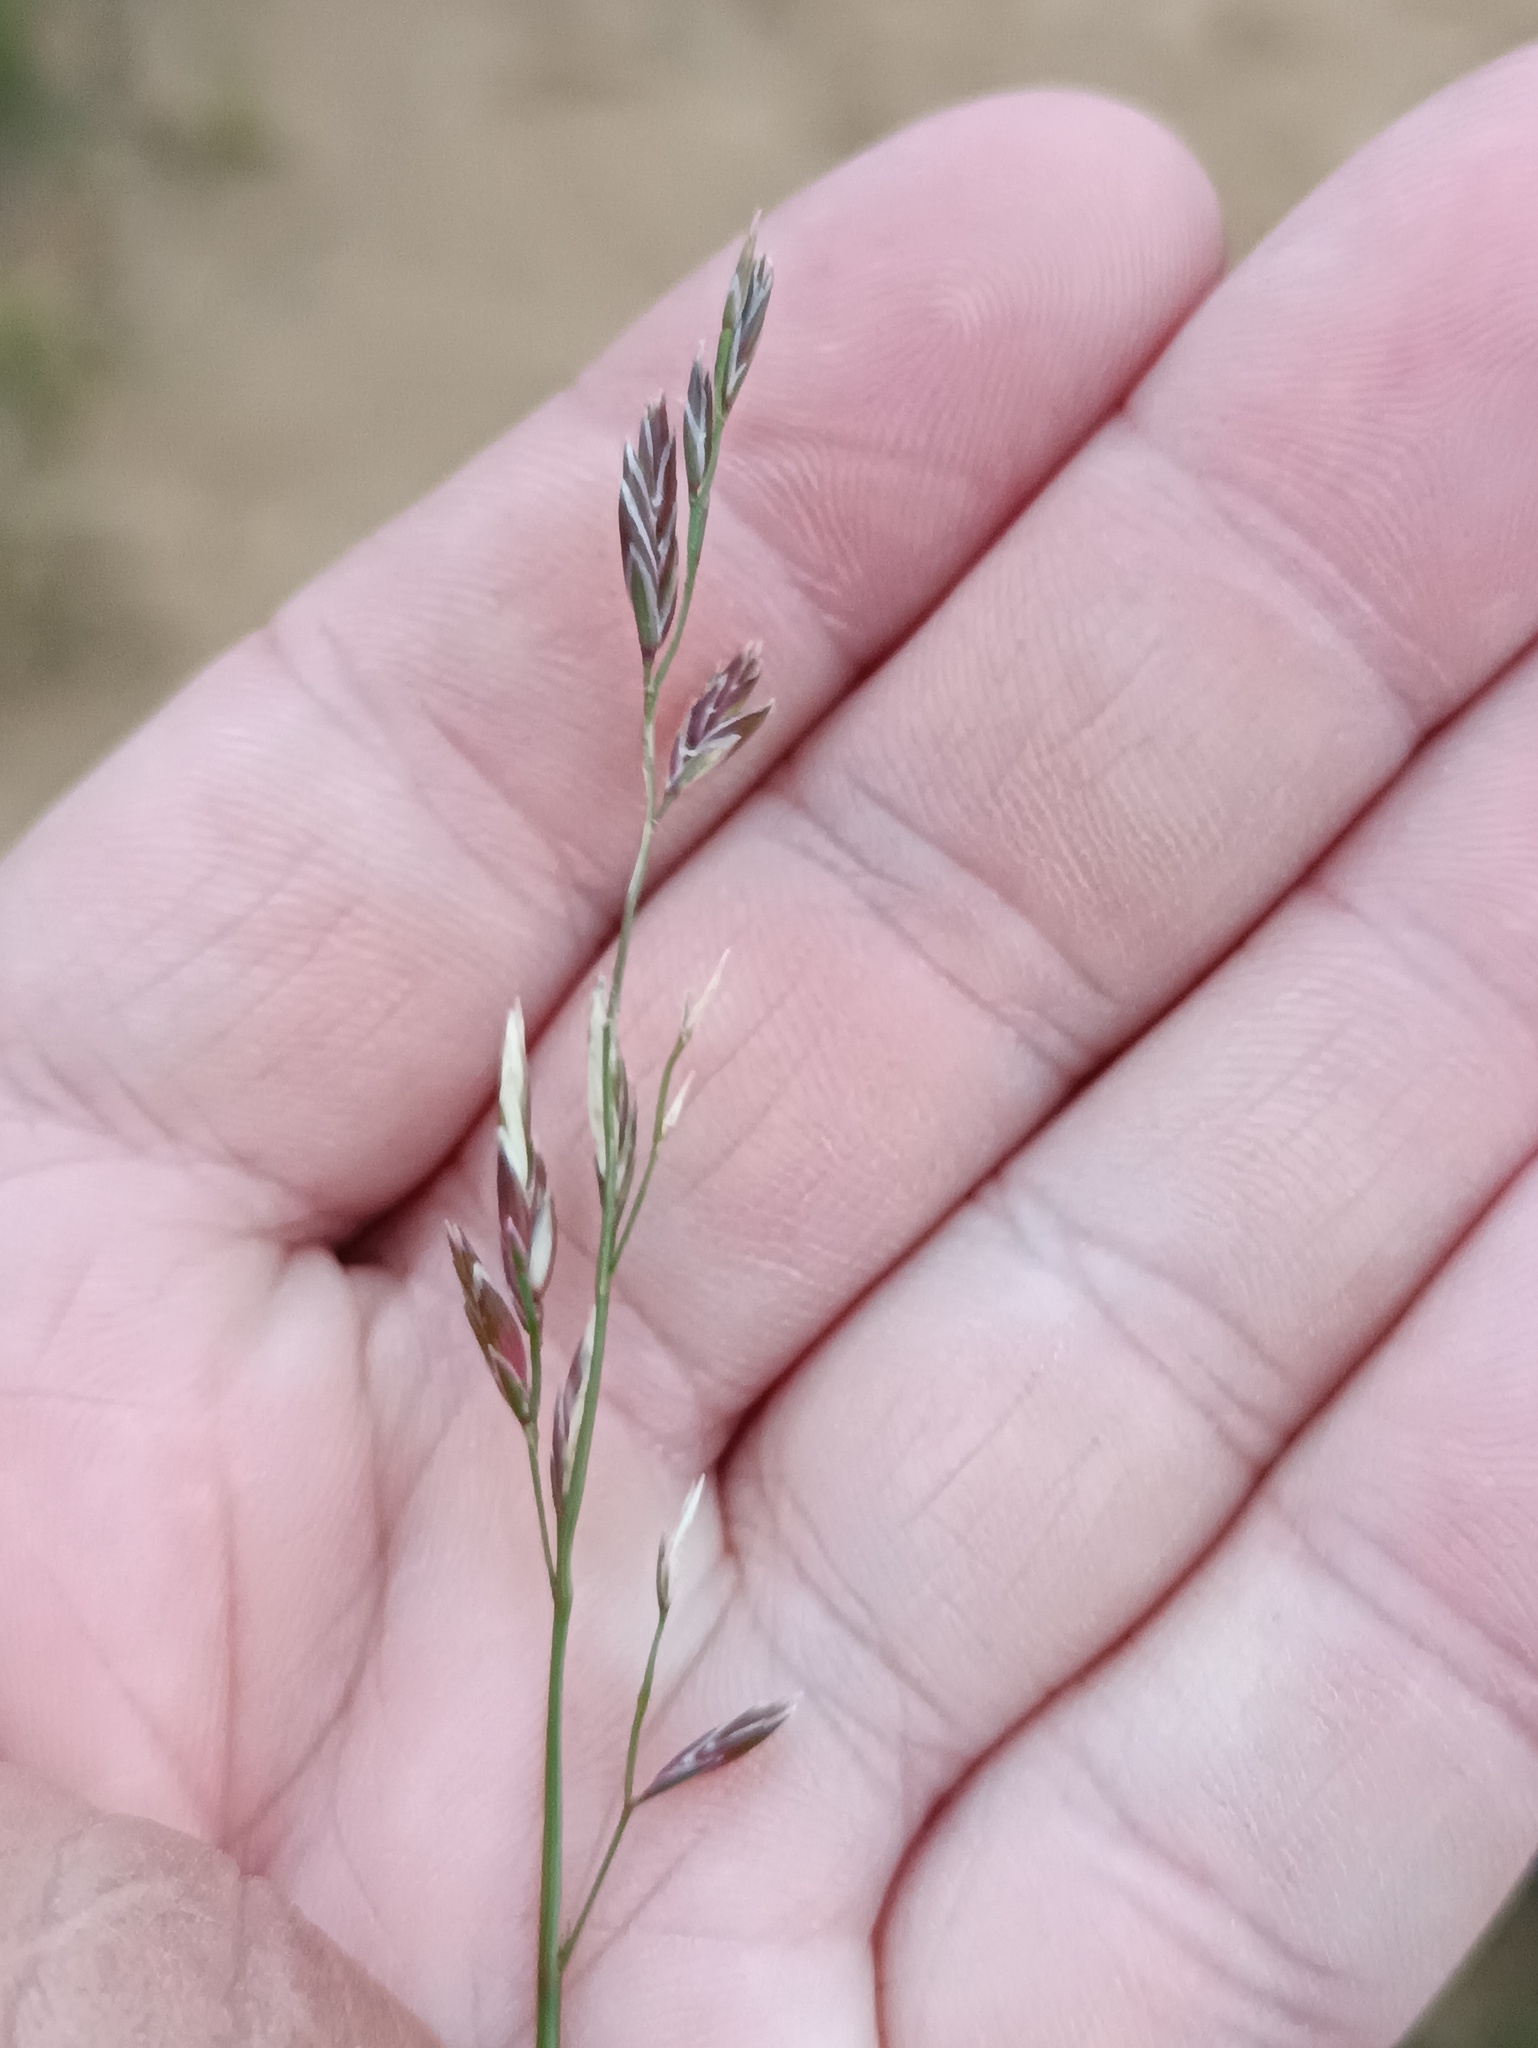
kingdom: Plantae
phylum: Tracheophyta
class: Liliopsida
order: Poales
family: Poaceae
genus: Lolium
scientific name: Lolium pratense
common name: Dover grass
